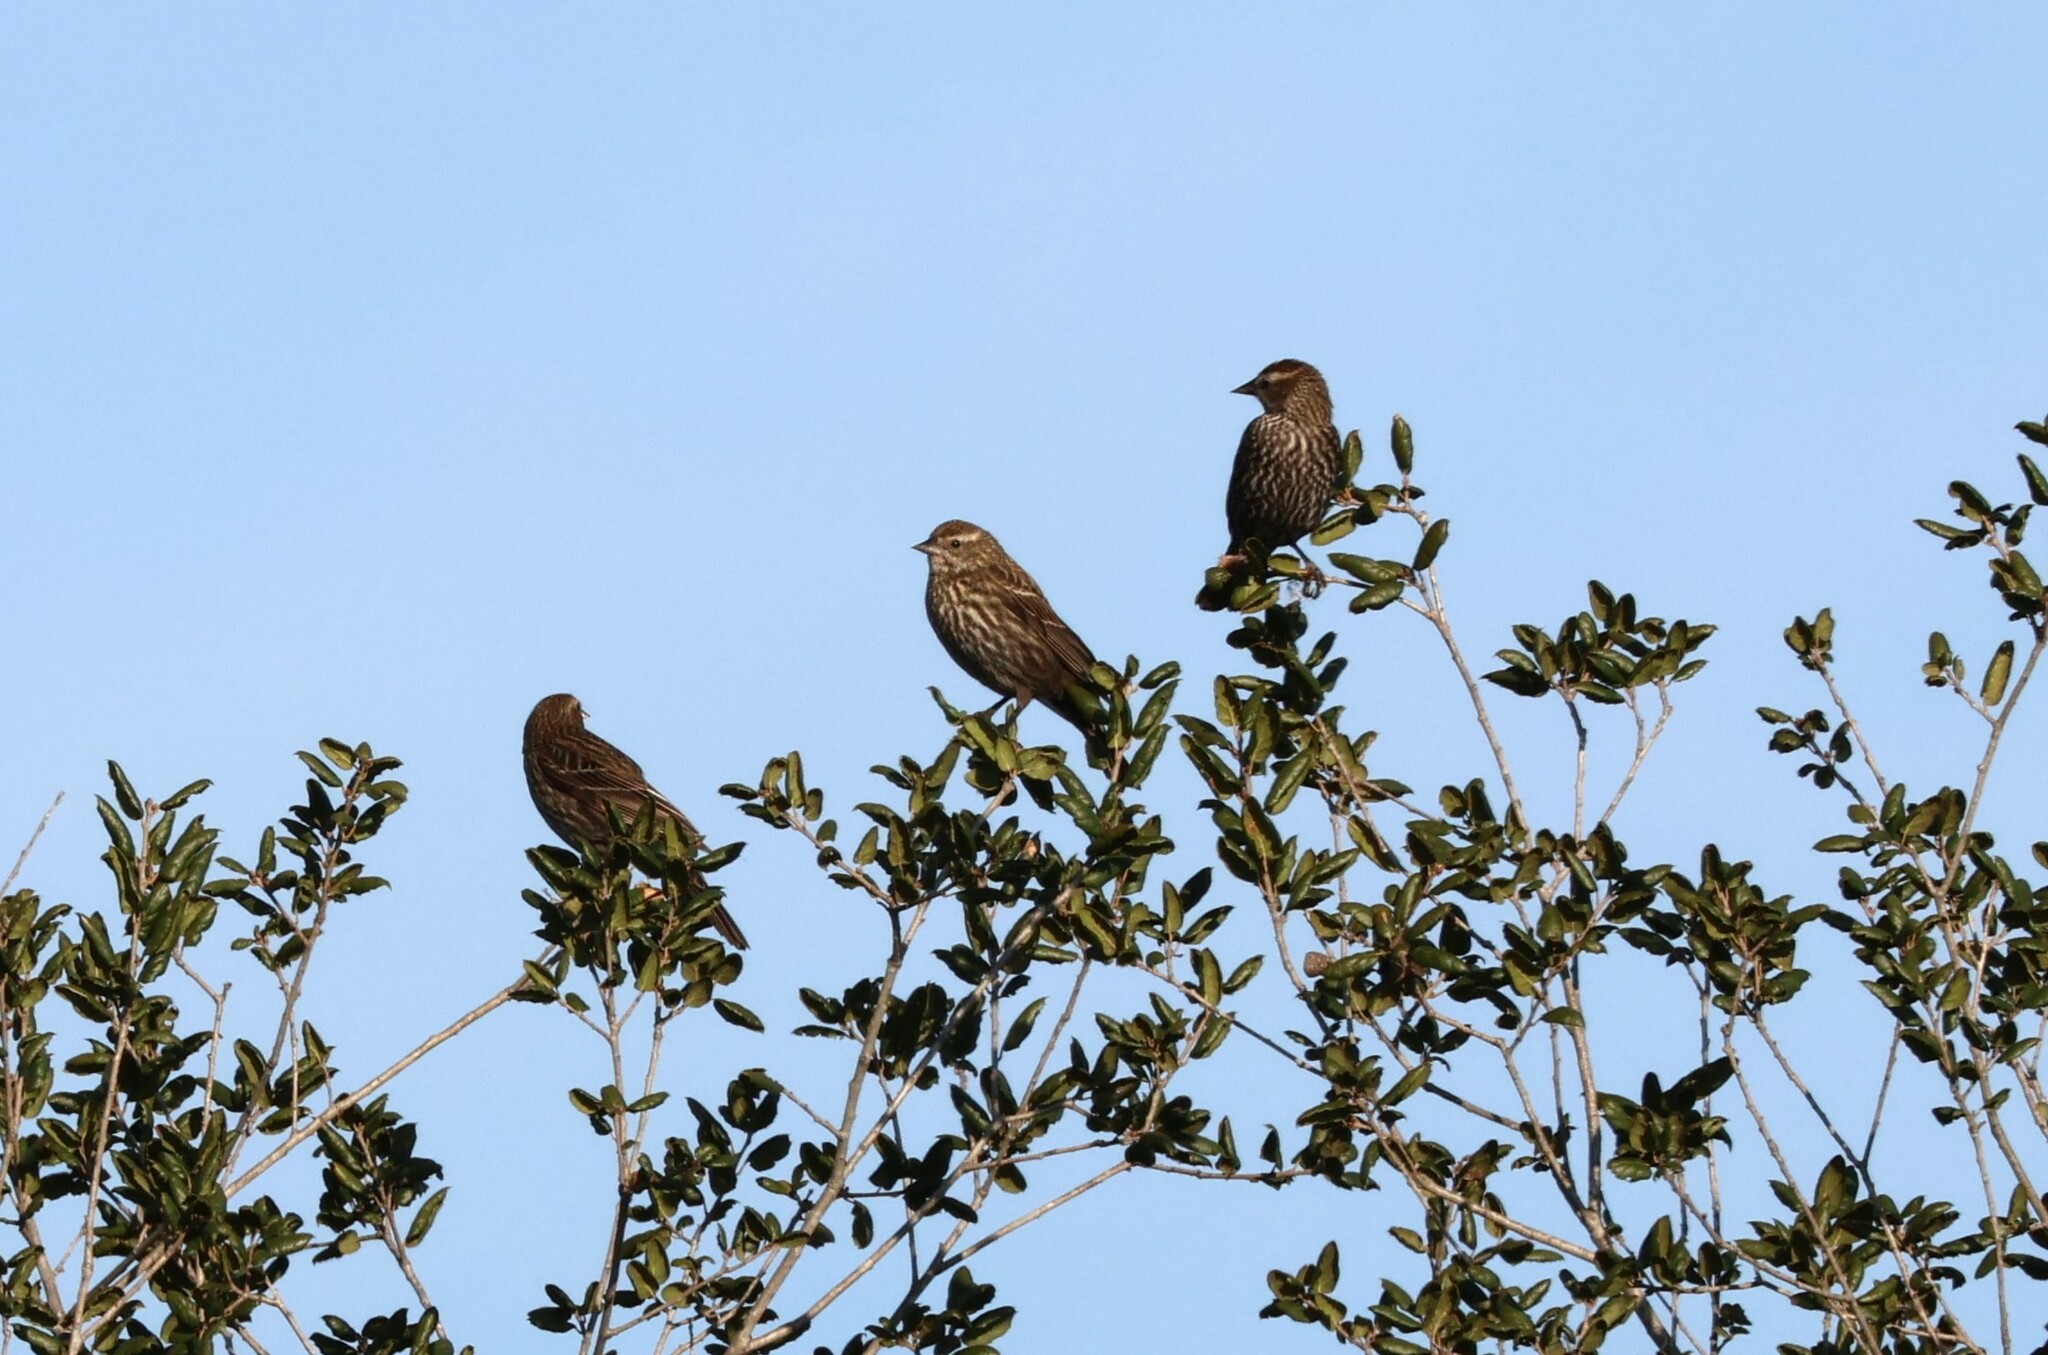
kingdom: Animalia
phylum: Chordata
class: Aves
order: Passeriformes
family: Icteridae
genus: Agelaius
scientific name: Agelaius phoeniceus
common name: Red-winged blackbird
